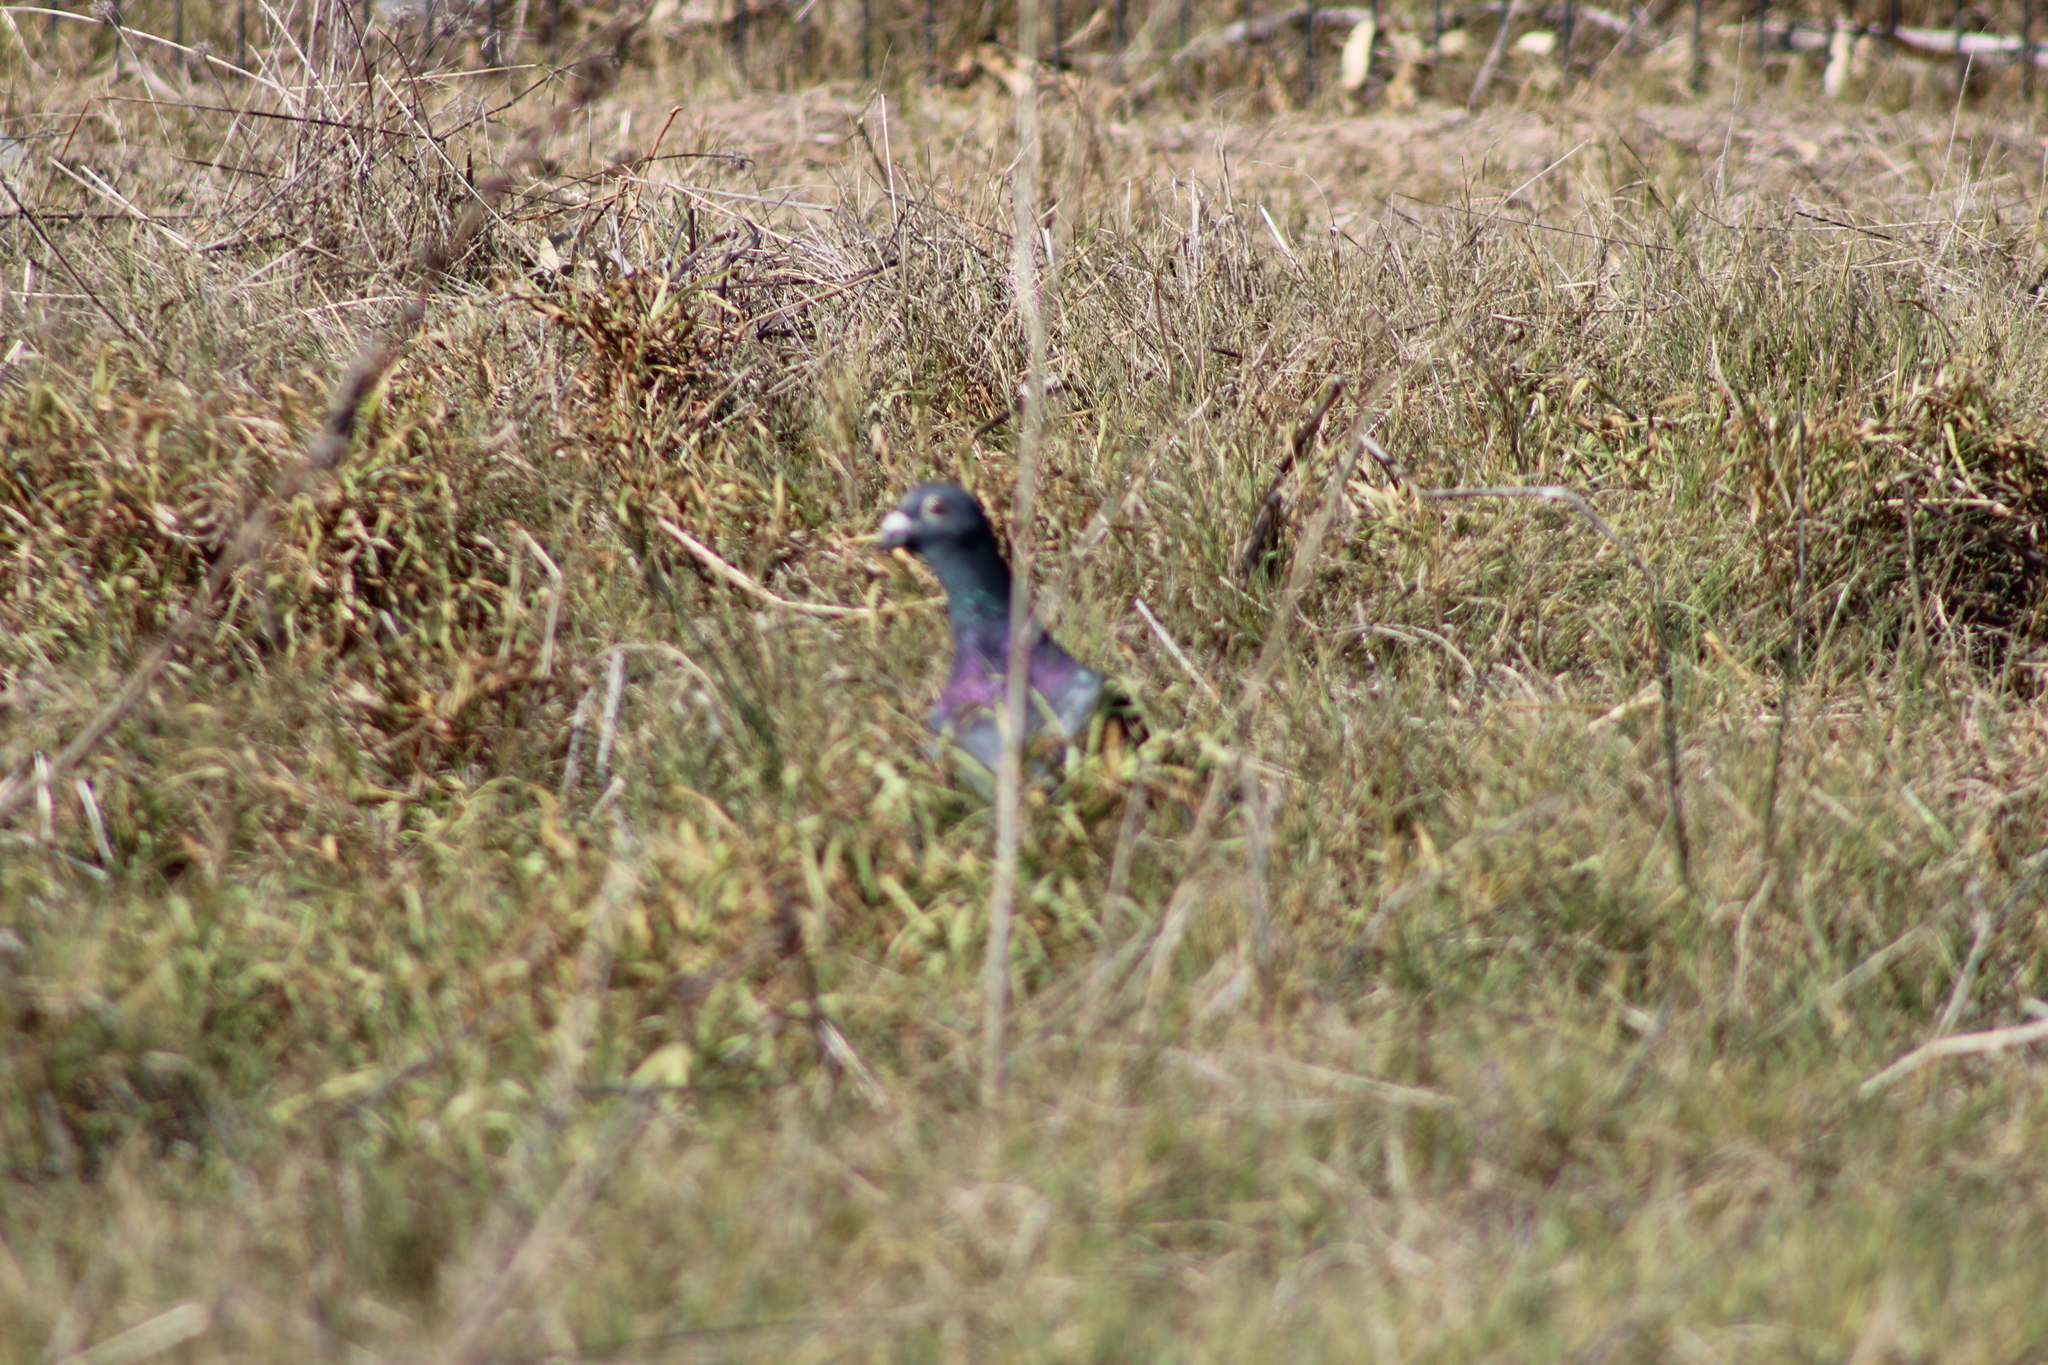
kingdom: Animalia
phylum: Chordata
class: Aves
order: Columbiformes
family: Columbidae
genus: Columba
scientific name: Columba livia
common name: Rock pigeon
